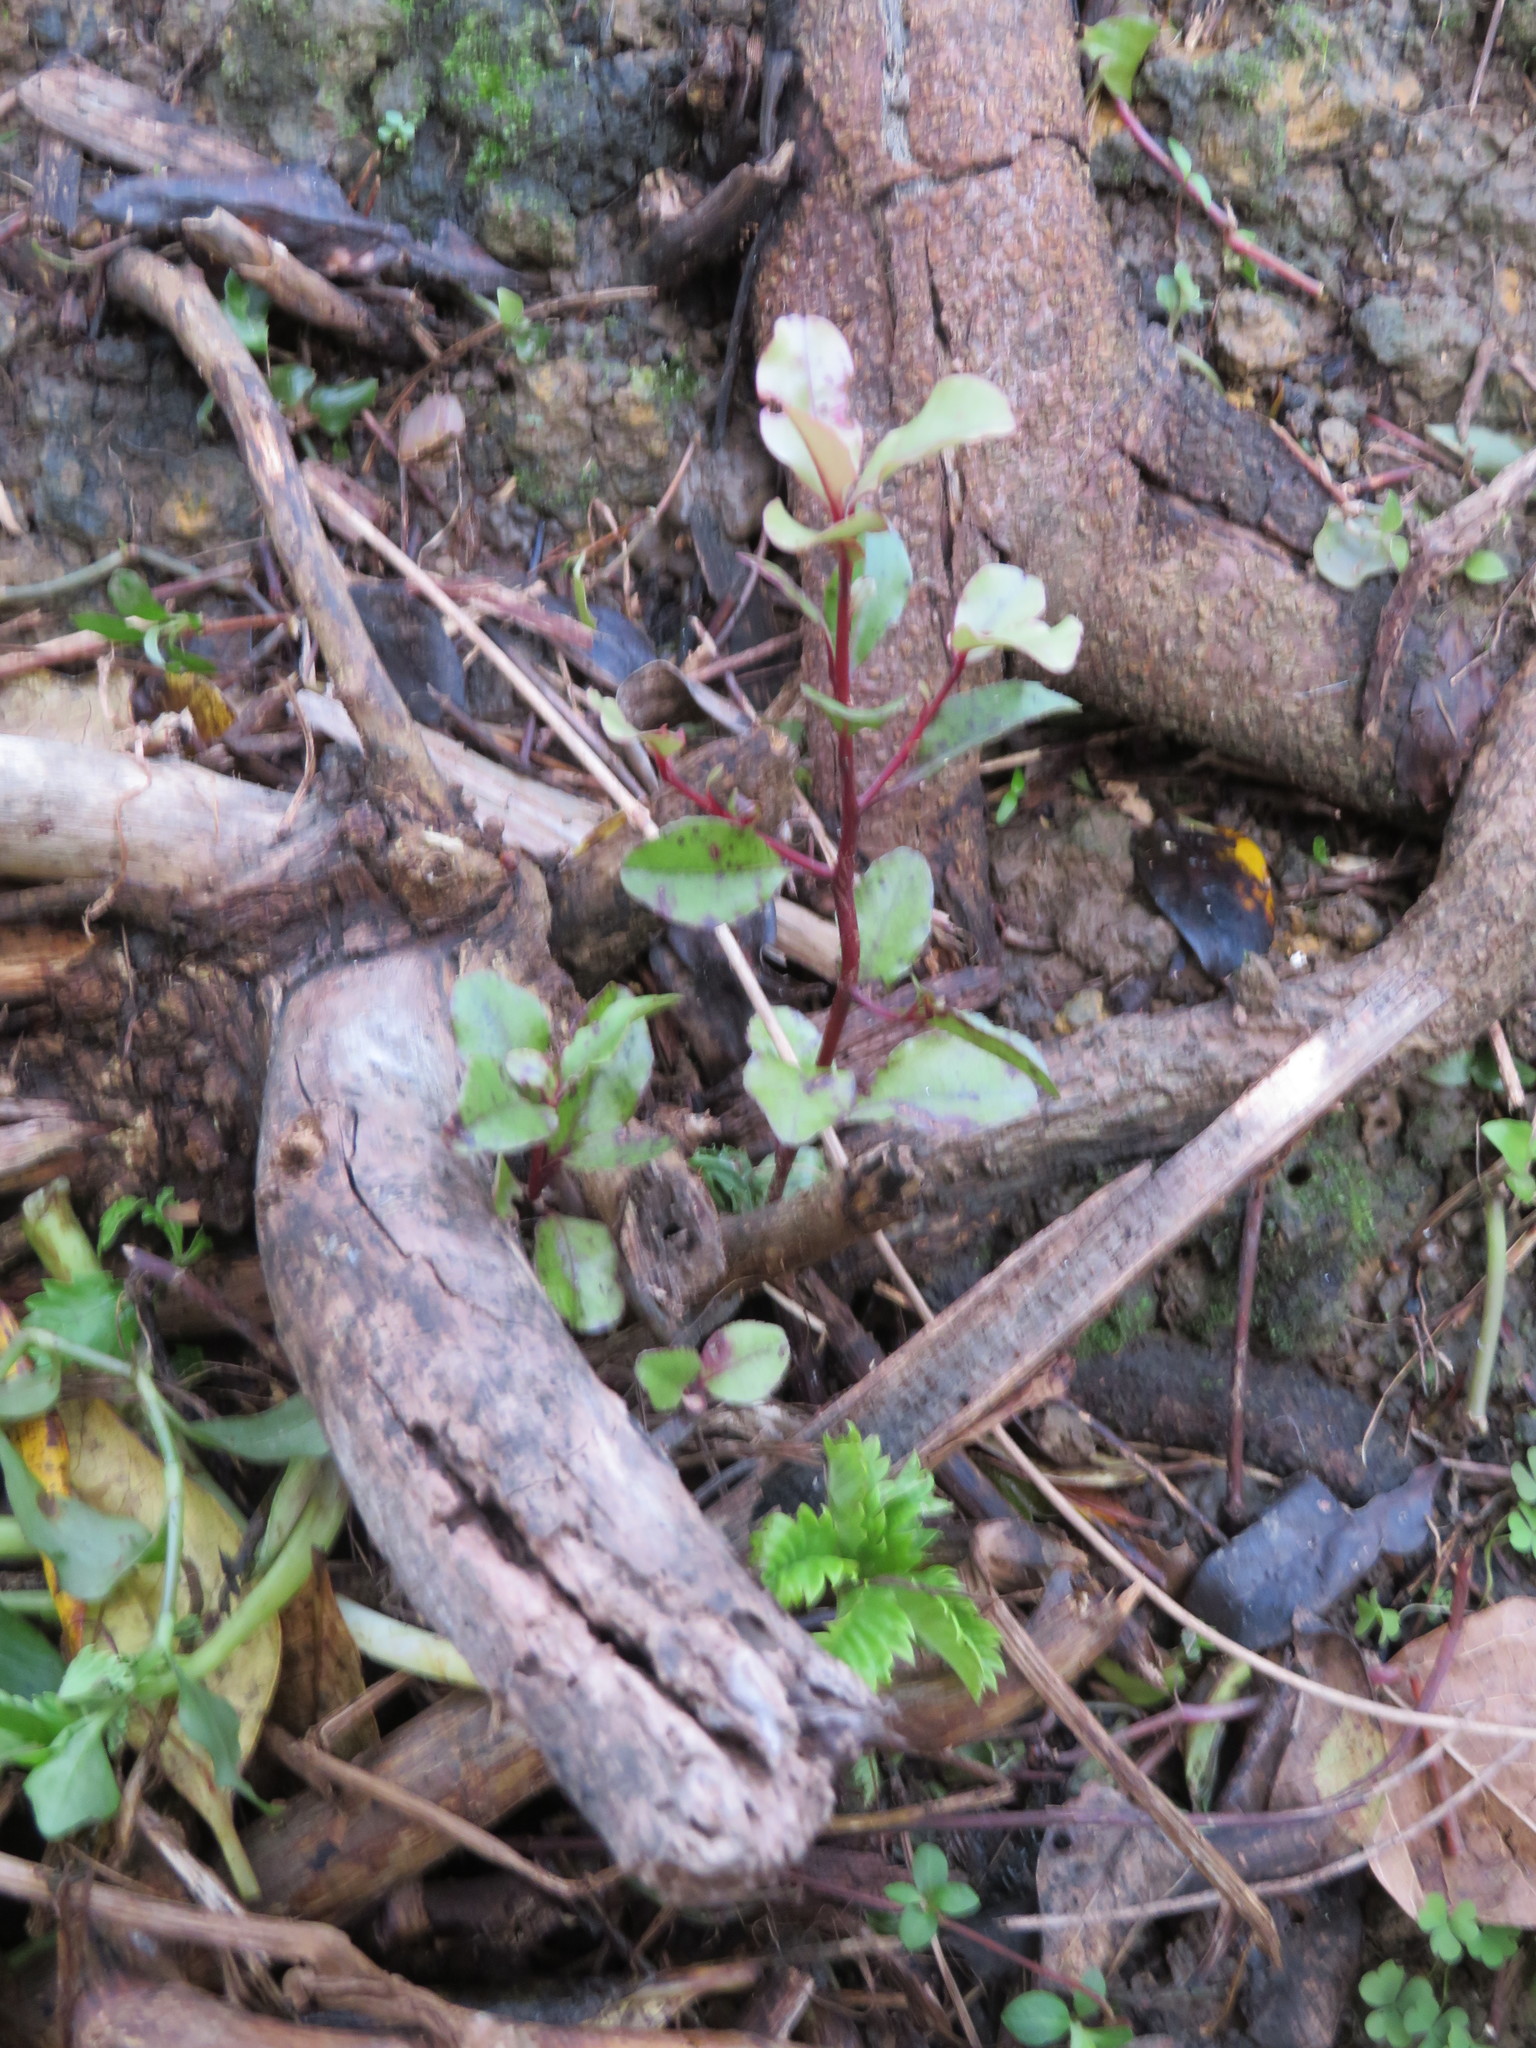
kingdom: Plantae
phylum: Tracheophyta
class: Magnoliopsida
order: Geraniales
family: Melianthaceae
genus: Melianthus
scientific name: Melianthus major
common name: Honey-flower
